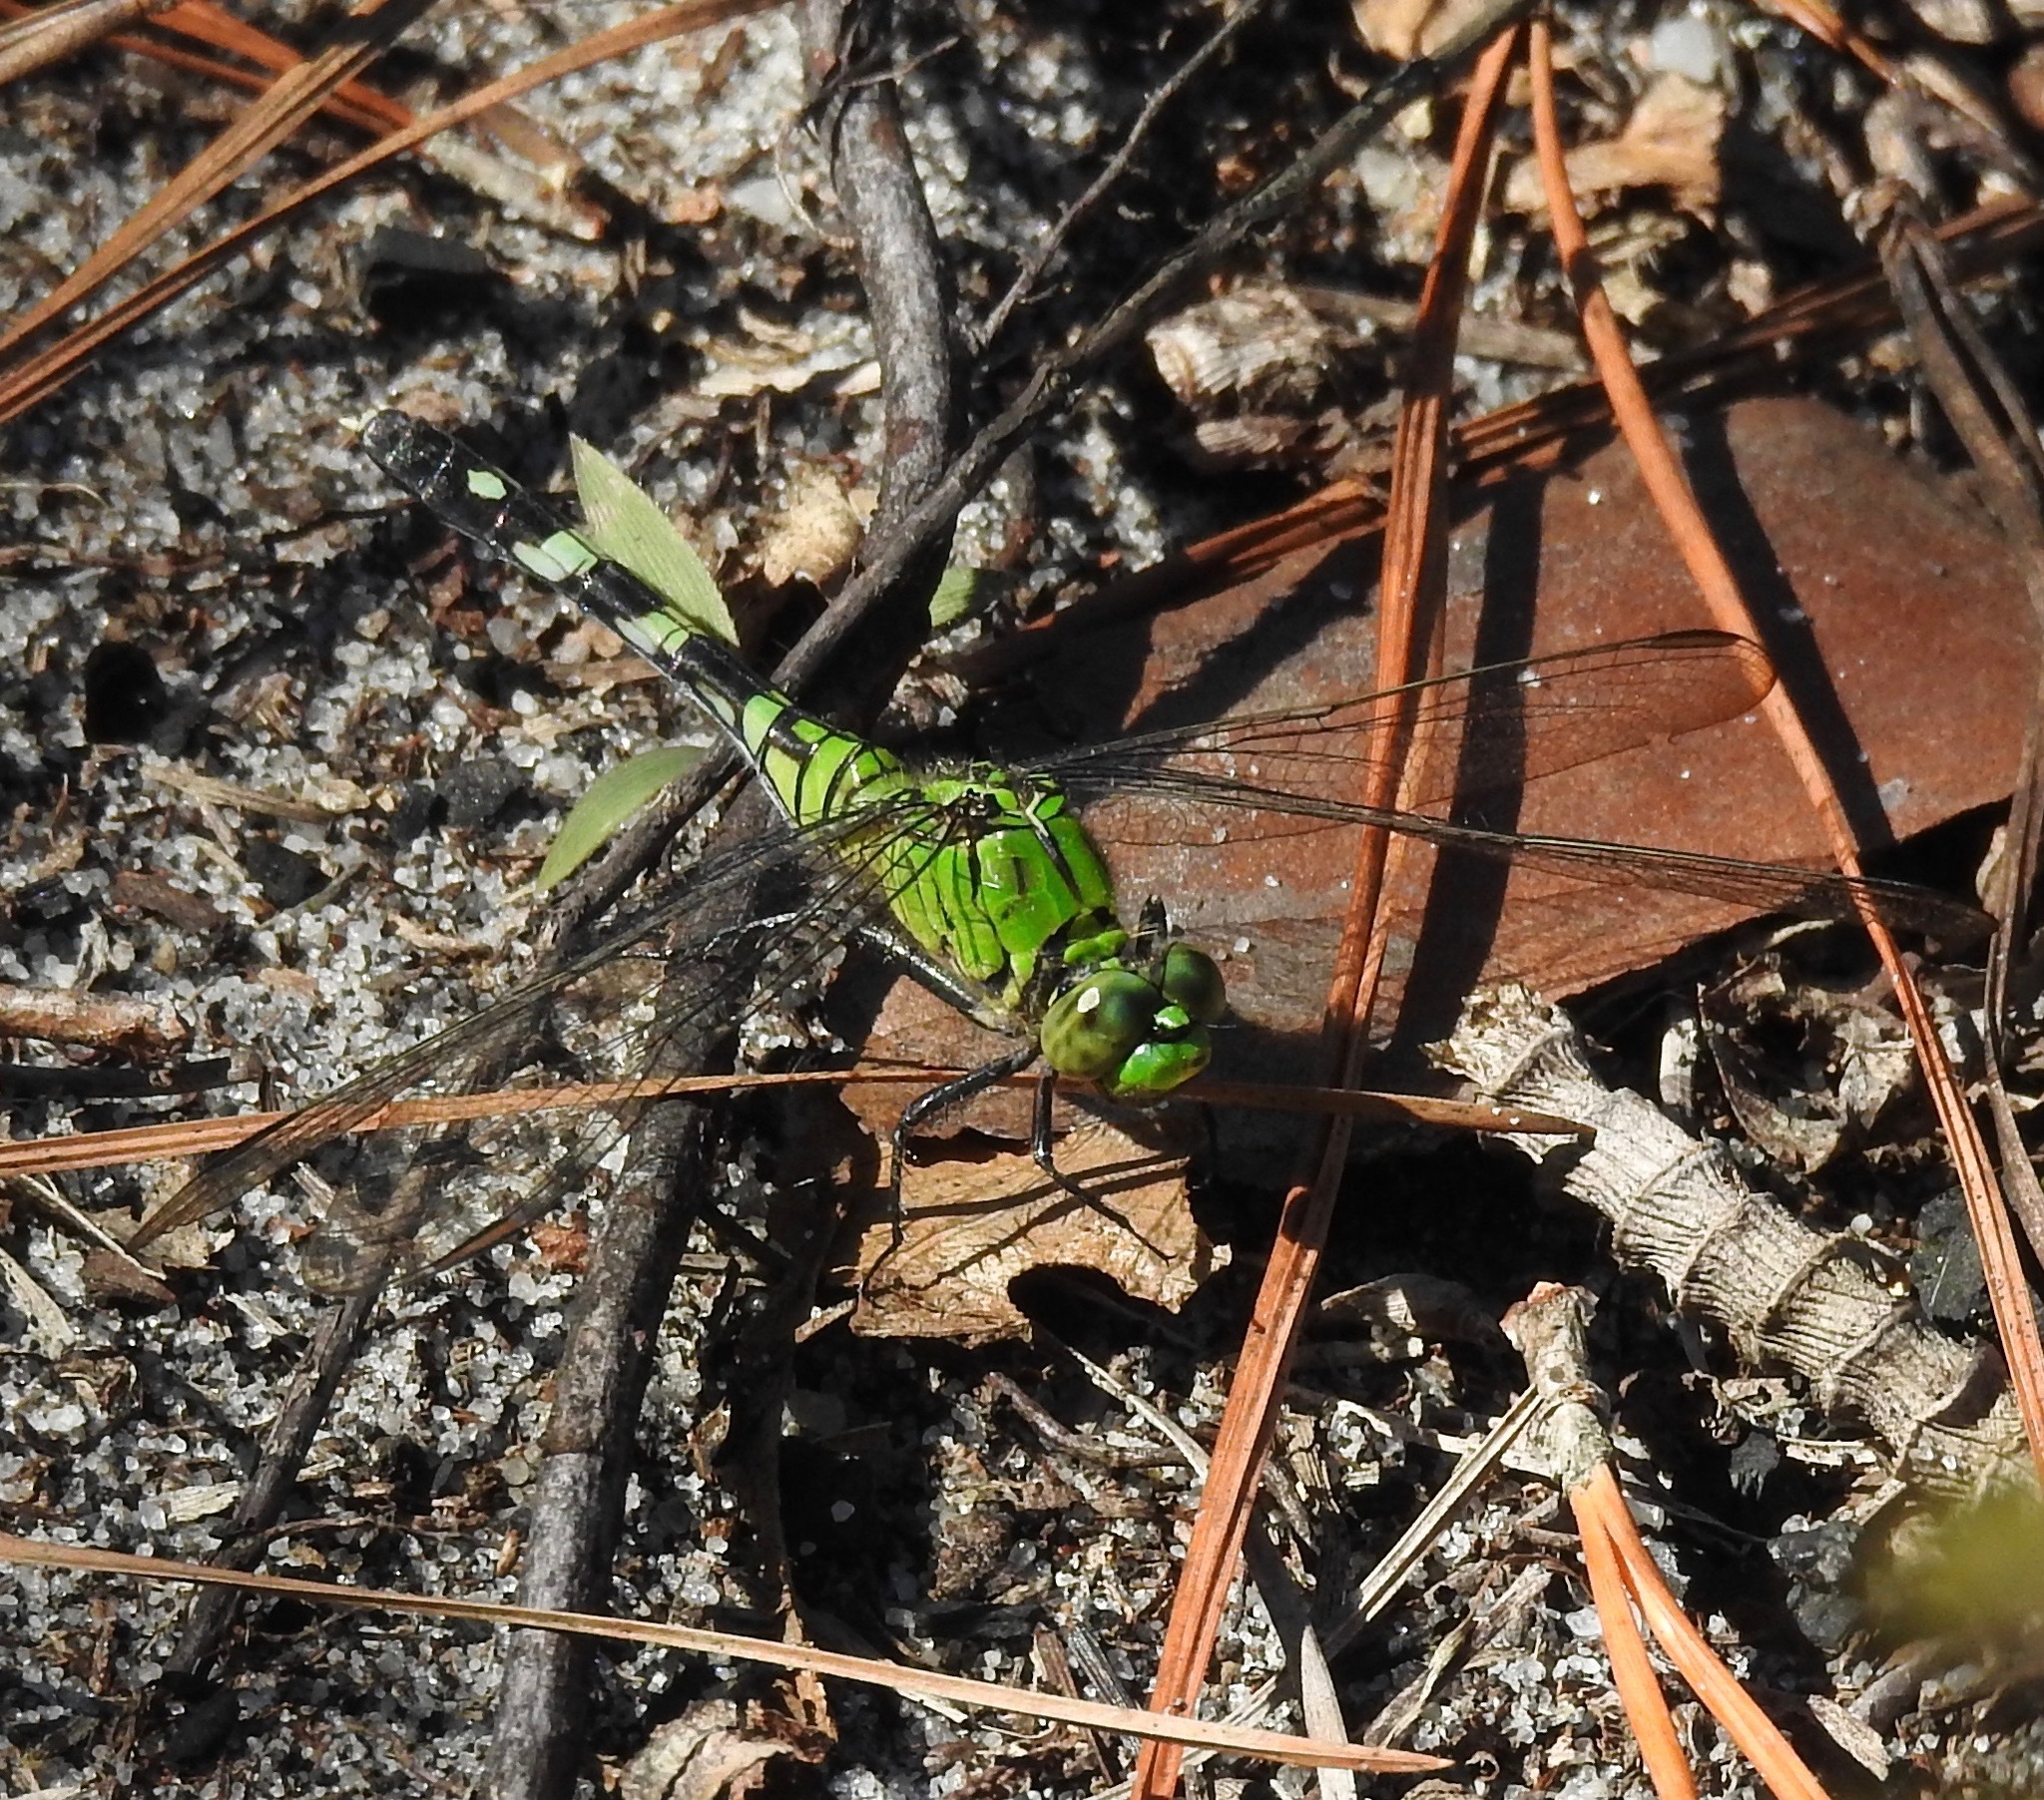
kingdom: Animalia
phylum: Arthropoda
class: Insecta
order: Odonata
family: Libellulidae
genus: Erythemis
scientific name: Erythemis simplicicollis
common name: Eastern pondhawk
